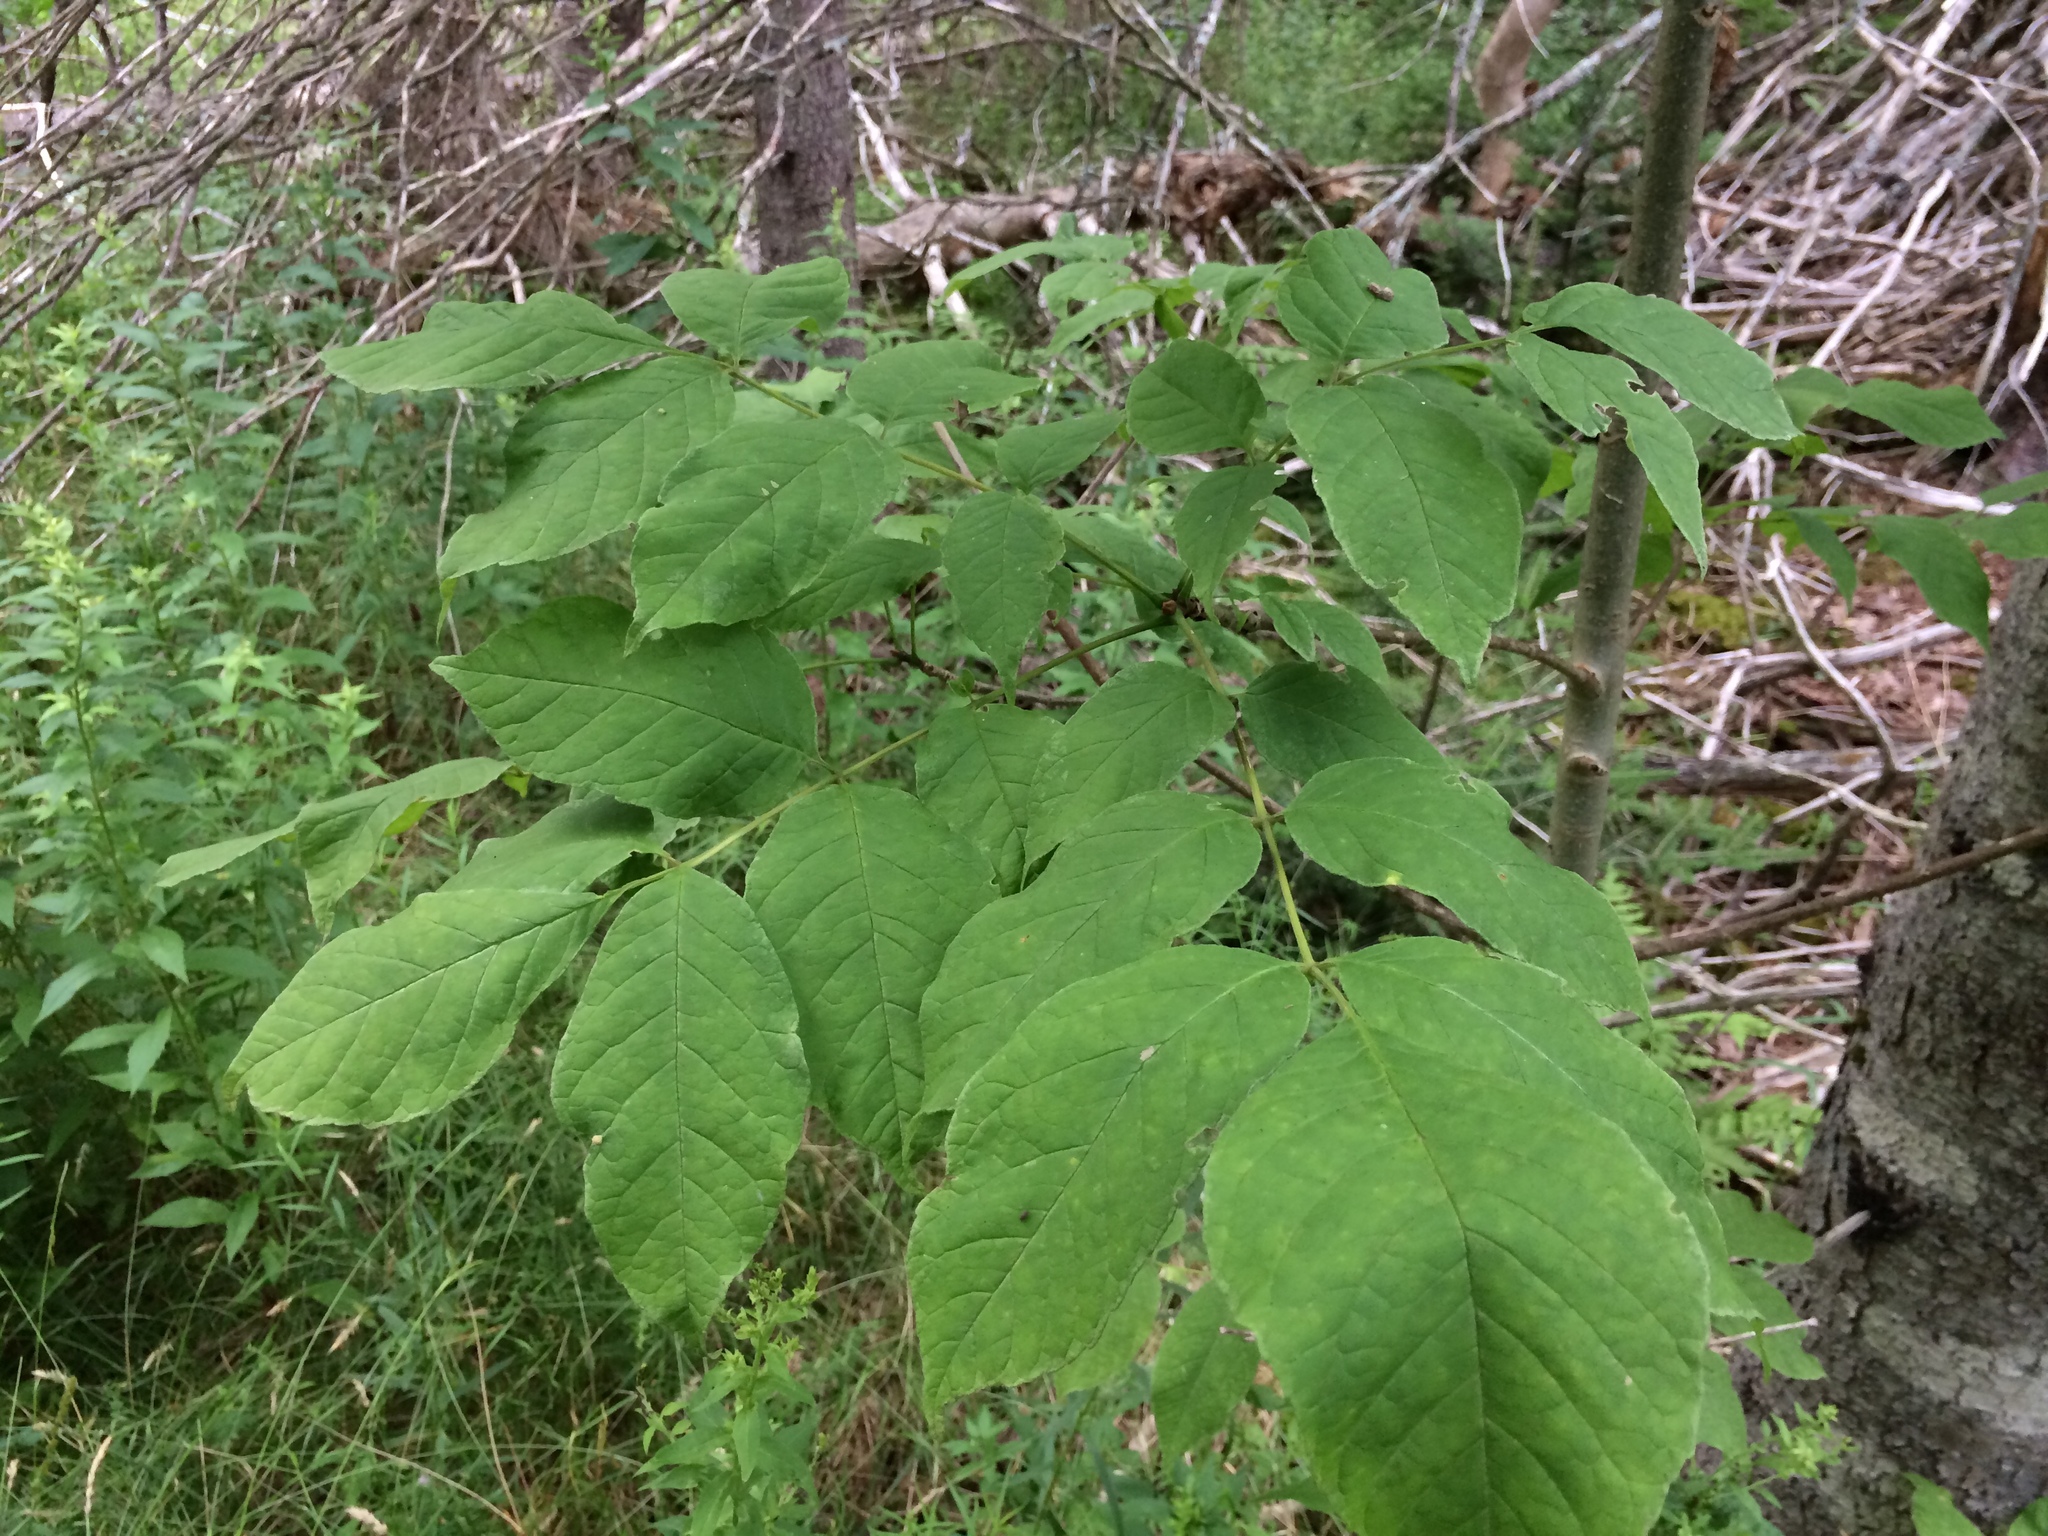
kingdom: Plantae
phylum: Tracheophyta
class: Magnoliopsida
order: Lamiales
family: Oleaceae
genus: Fraxinus
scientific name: Fraxinus americana
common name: White ash
